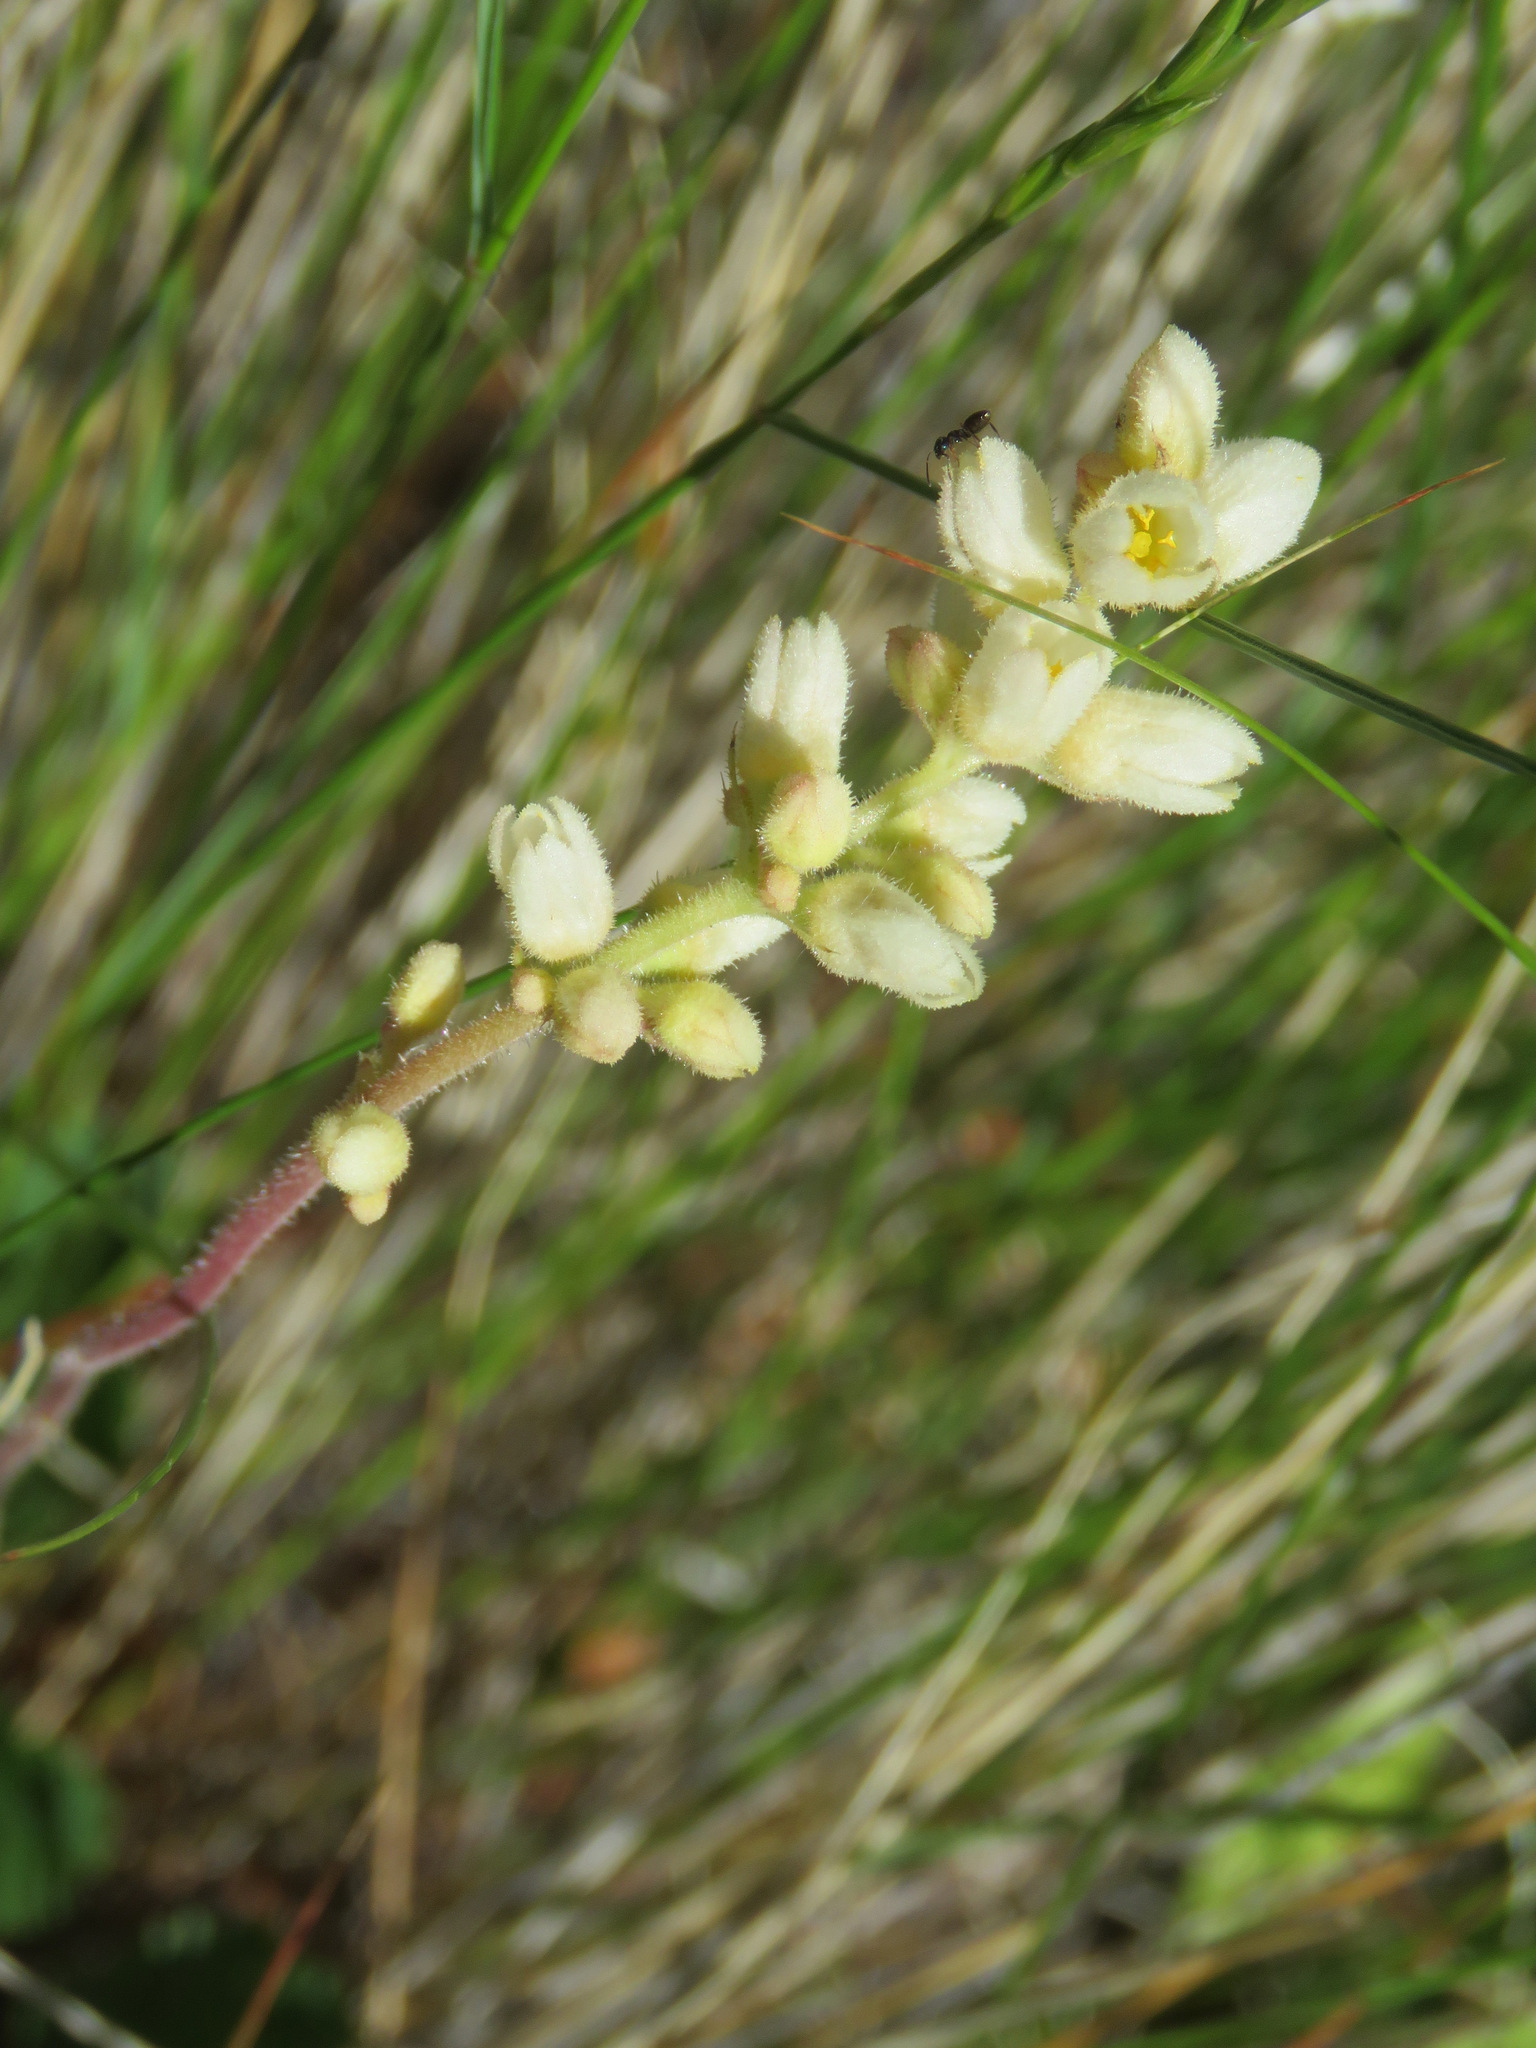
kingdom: Plantae
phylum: Tracheophyta
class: Magnoliopsida
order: Saxifragales
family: Saxifragaceae
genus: Heuchera
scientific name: Heuchera cylindrica
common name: Mat alumroot
